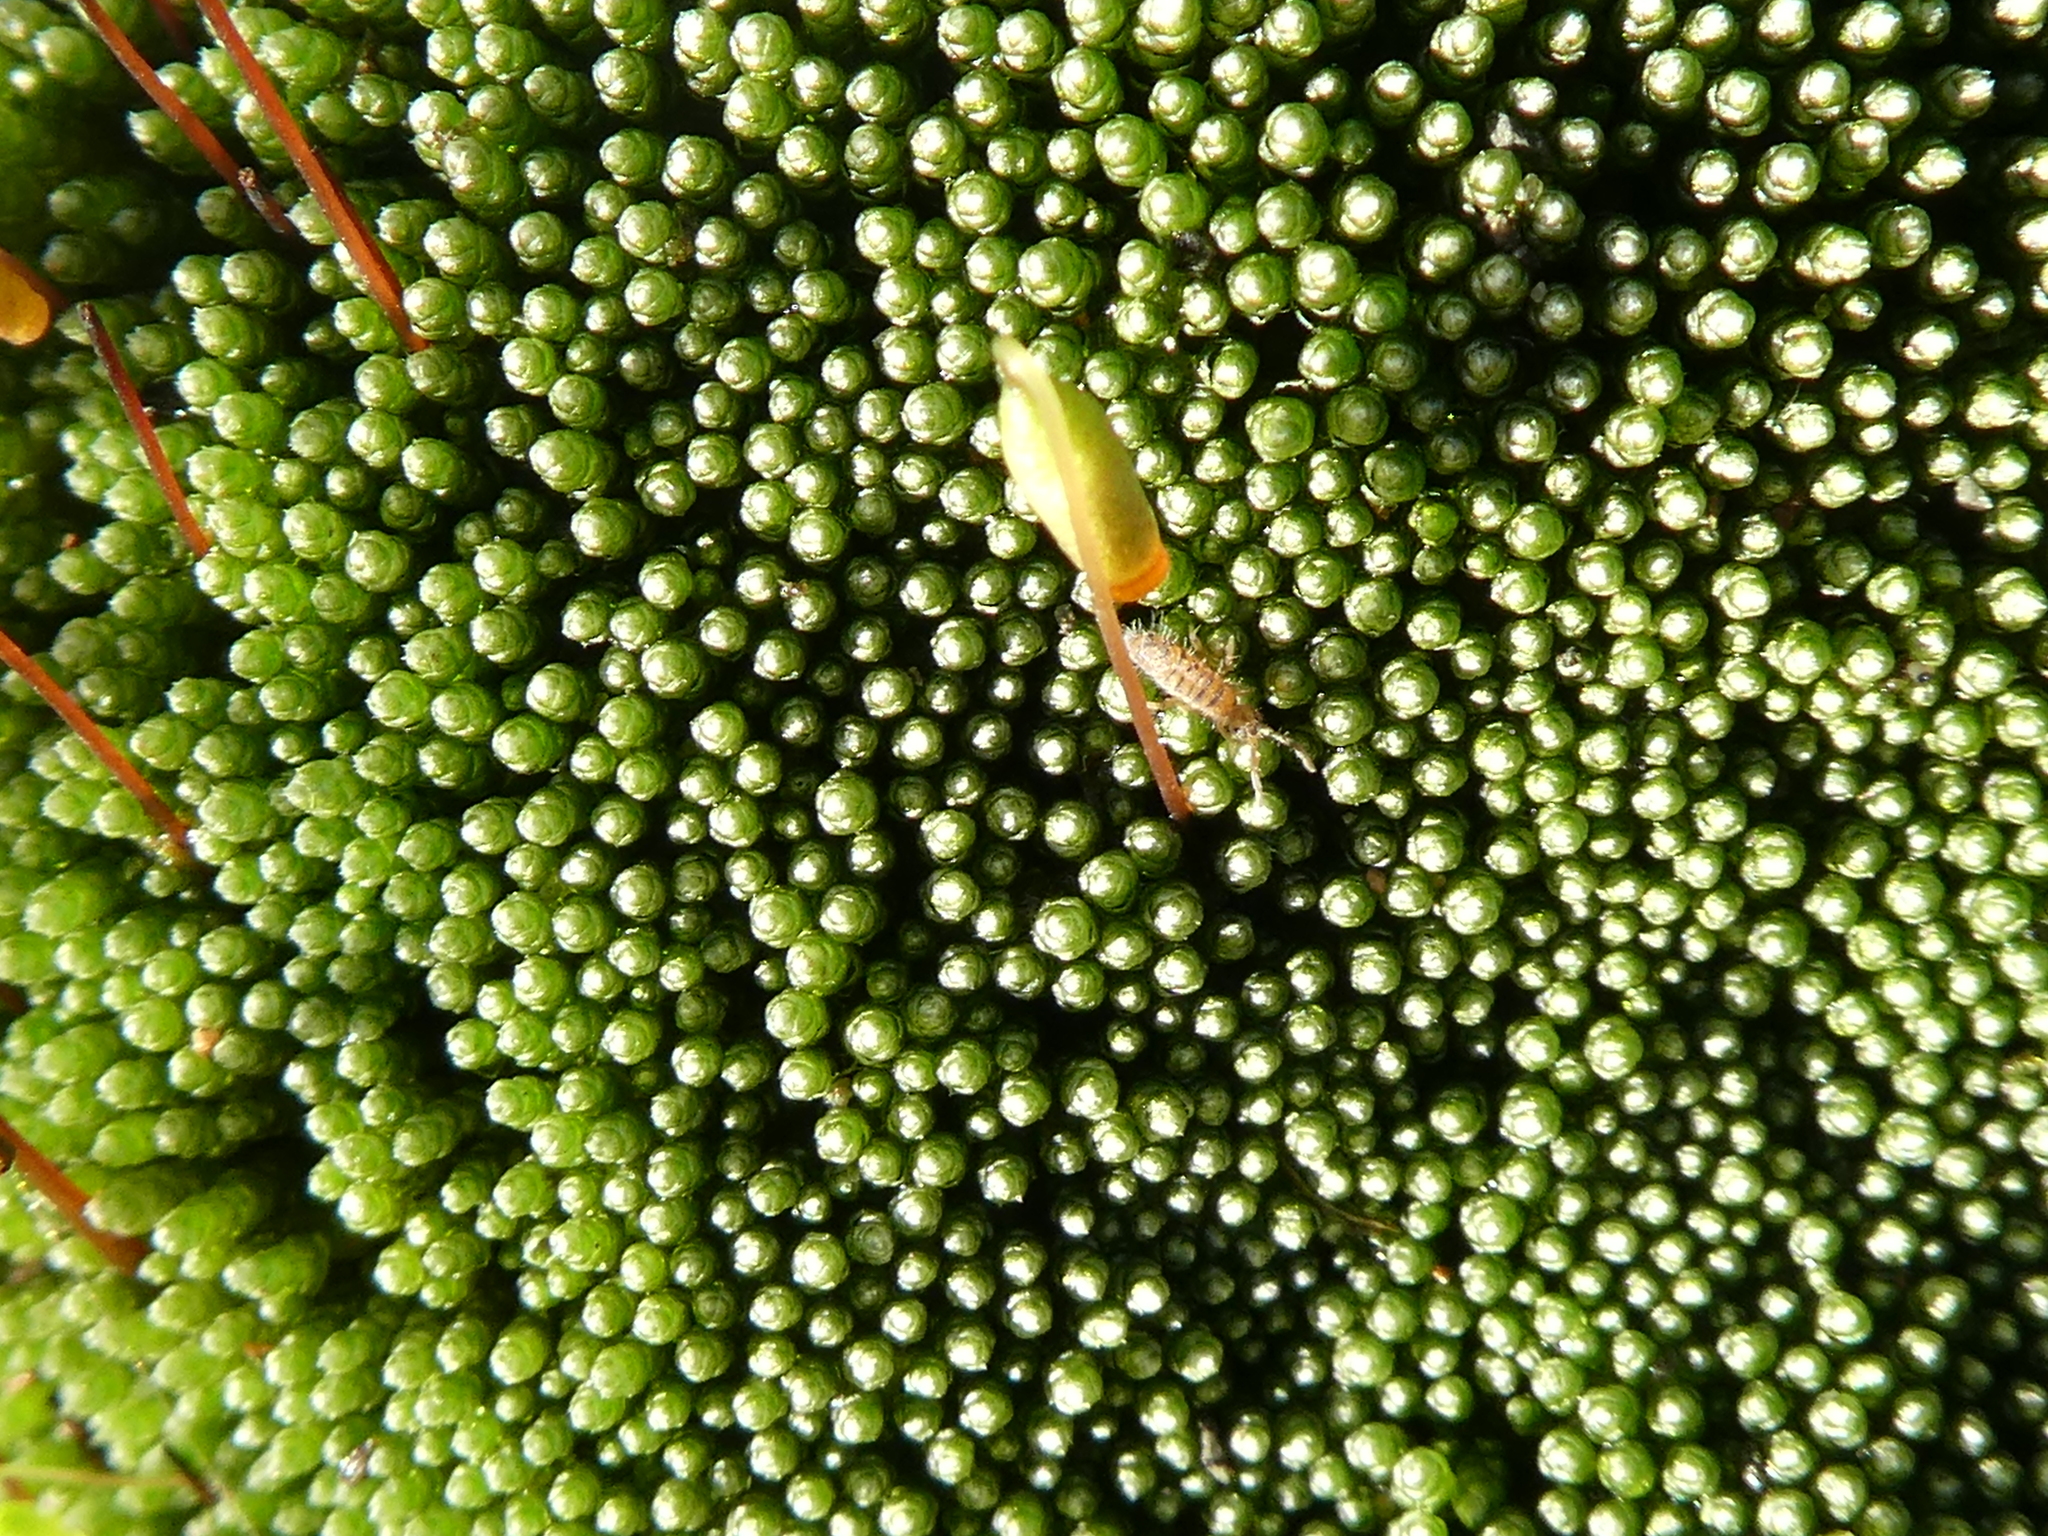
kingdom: Plantae
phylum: Bryophyta
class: Bryopsida
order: Bryales
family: Bryaceae
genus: Bryum
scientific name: Bryum argenteum
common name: Silver-moss
